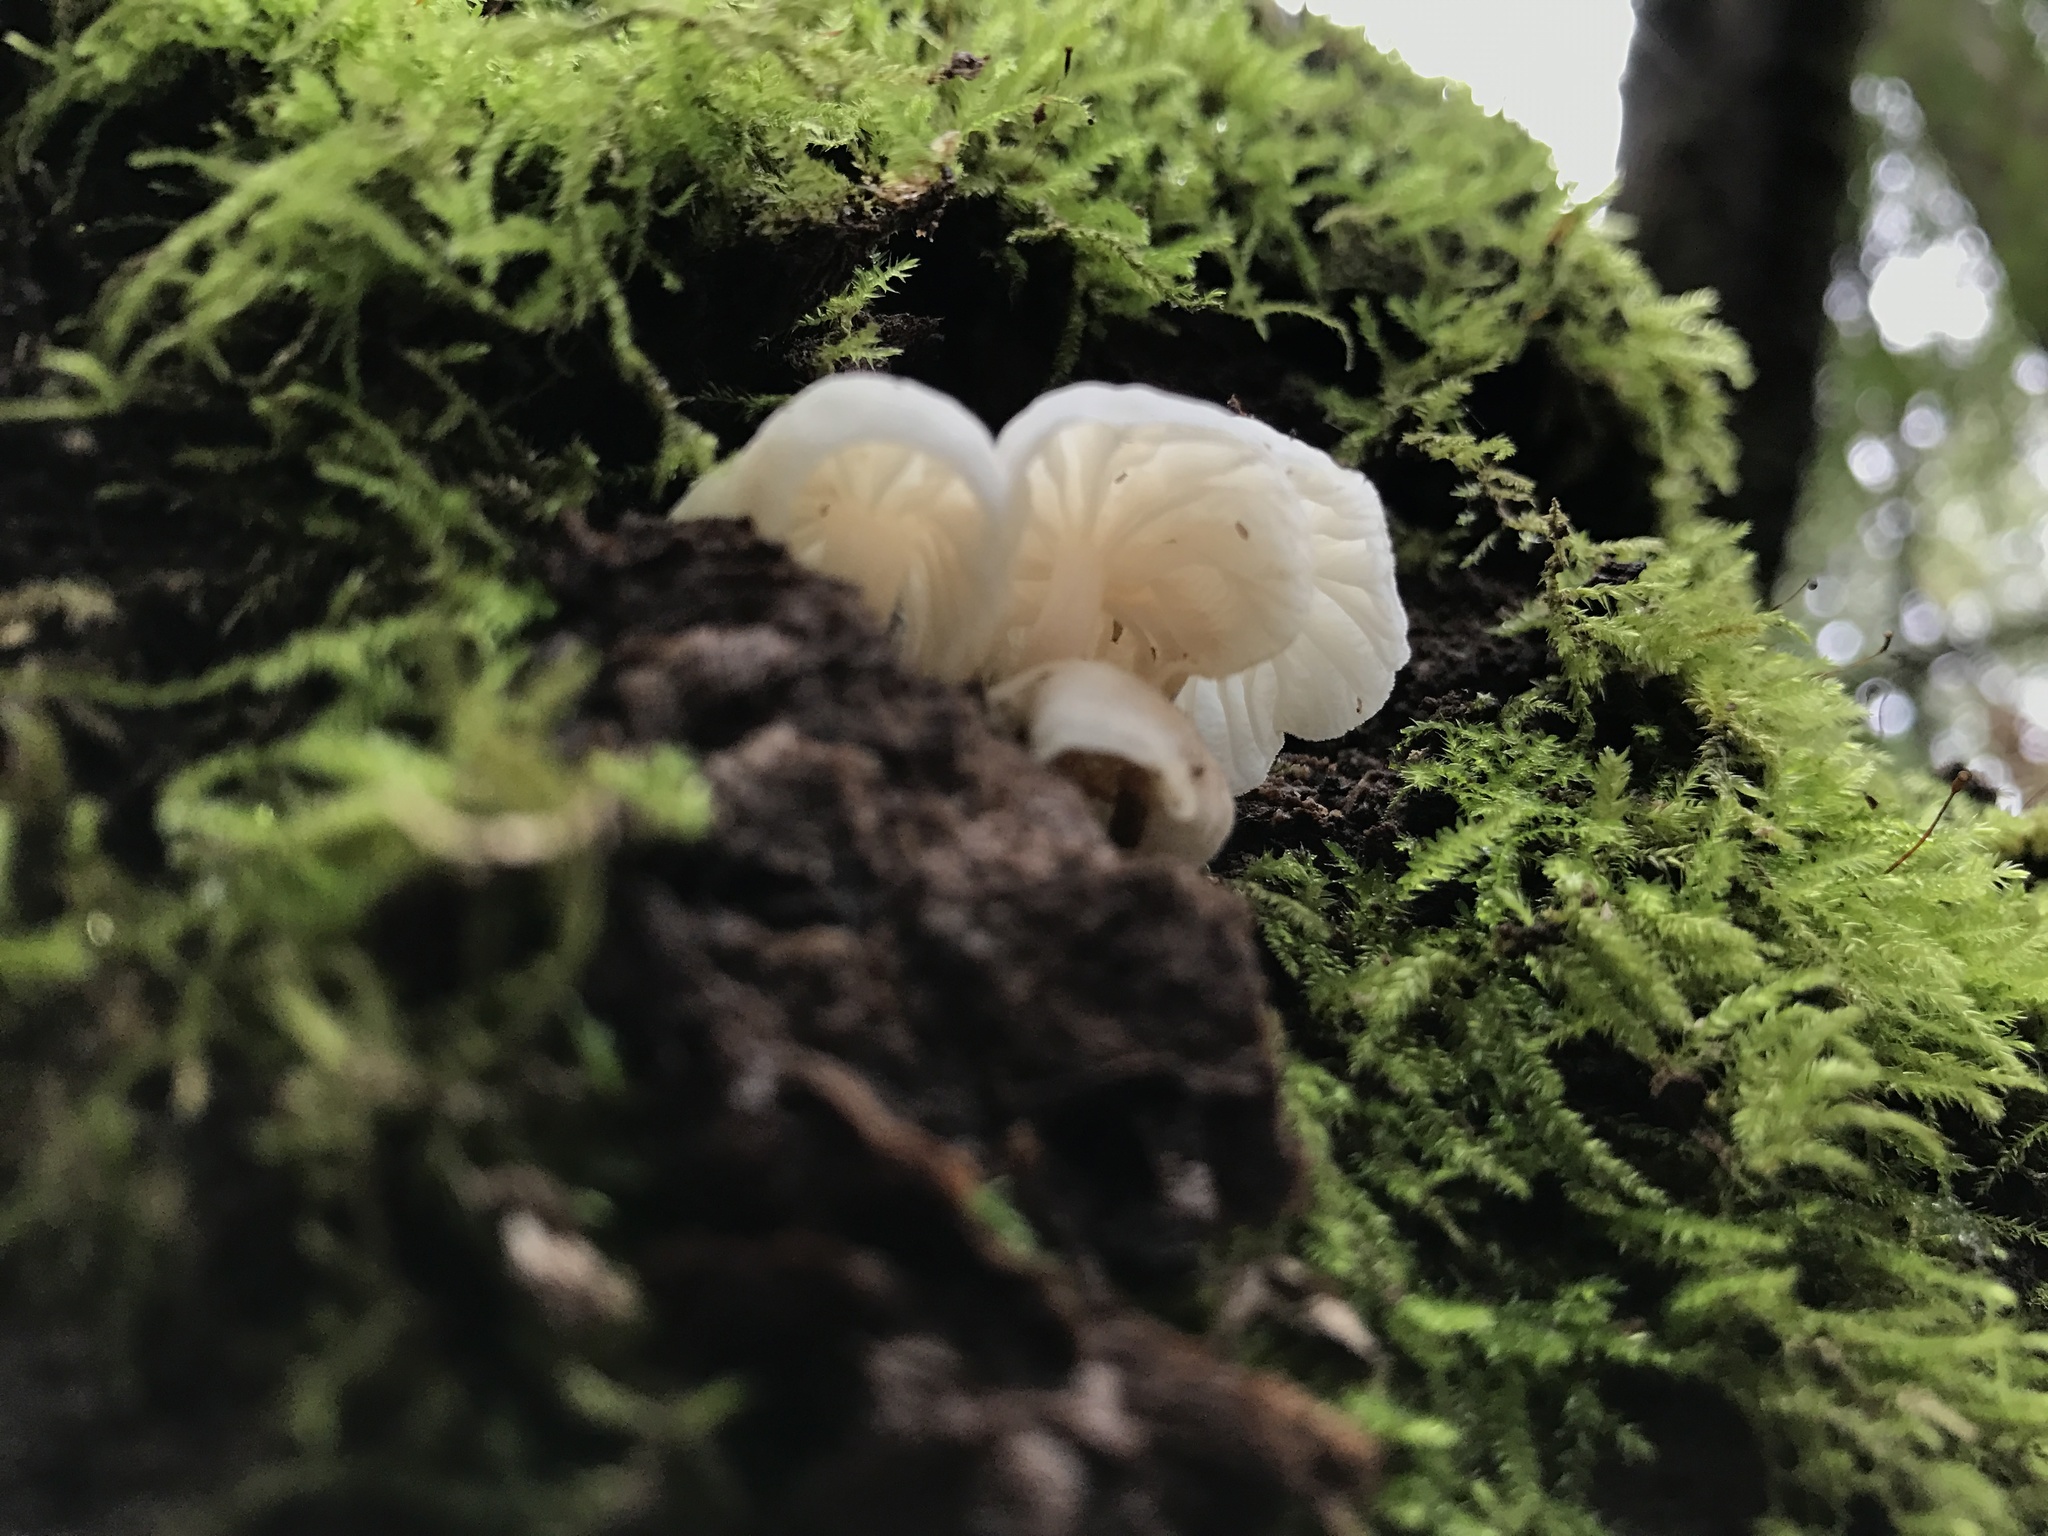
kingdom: Fungi
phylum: Basidiomycota
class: Agaricomycetes
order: Agaricales
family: Omphalotaceae
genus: Marasmiellus
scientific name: Marasmiellus candidus
